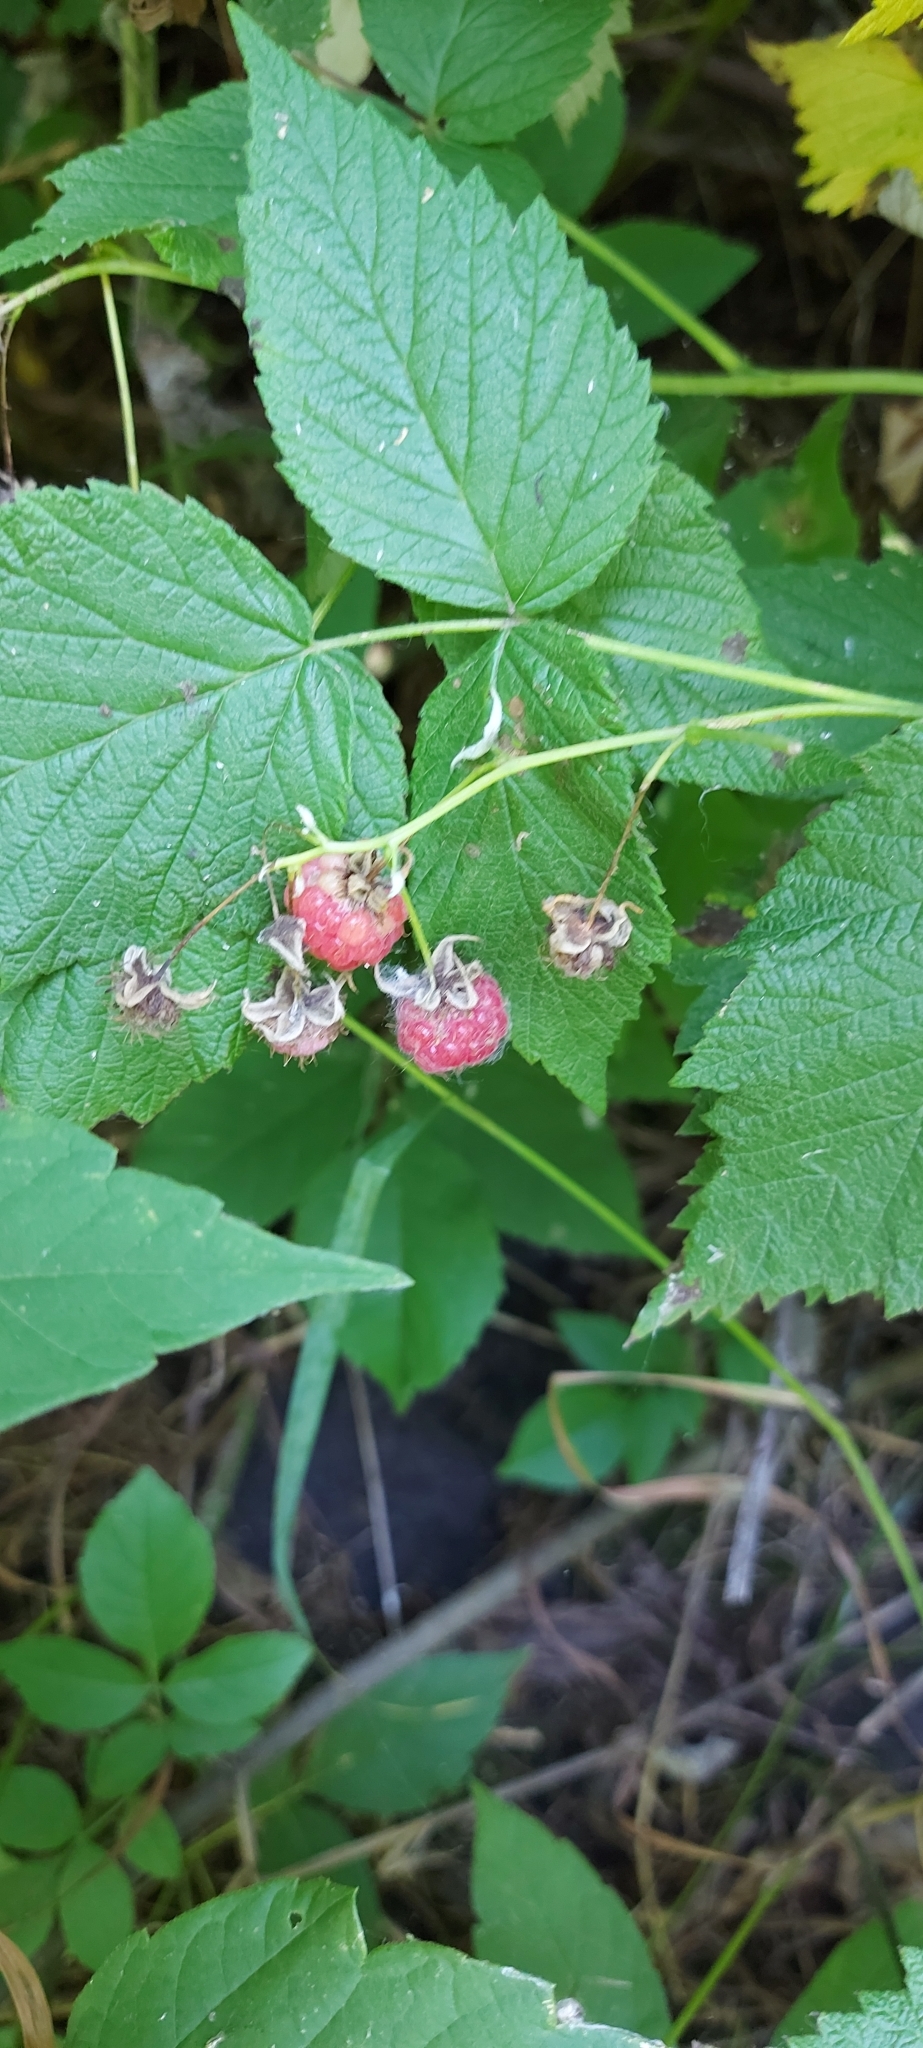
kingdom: Plantae
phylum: Tracheophyta
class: Magnoliopsida
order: Rosales
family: Rosaceae
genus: Rubus
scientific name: Rubus idaeus
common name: Raspberry
